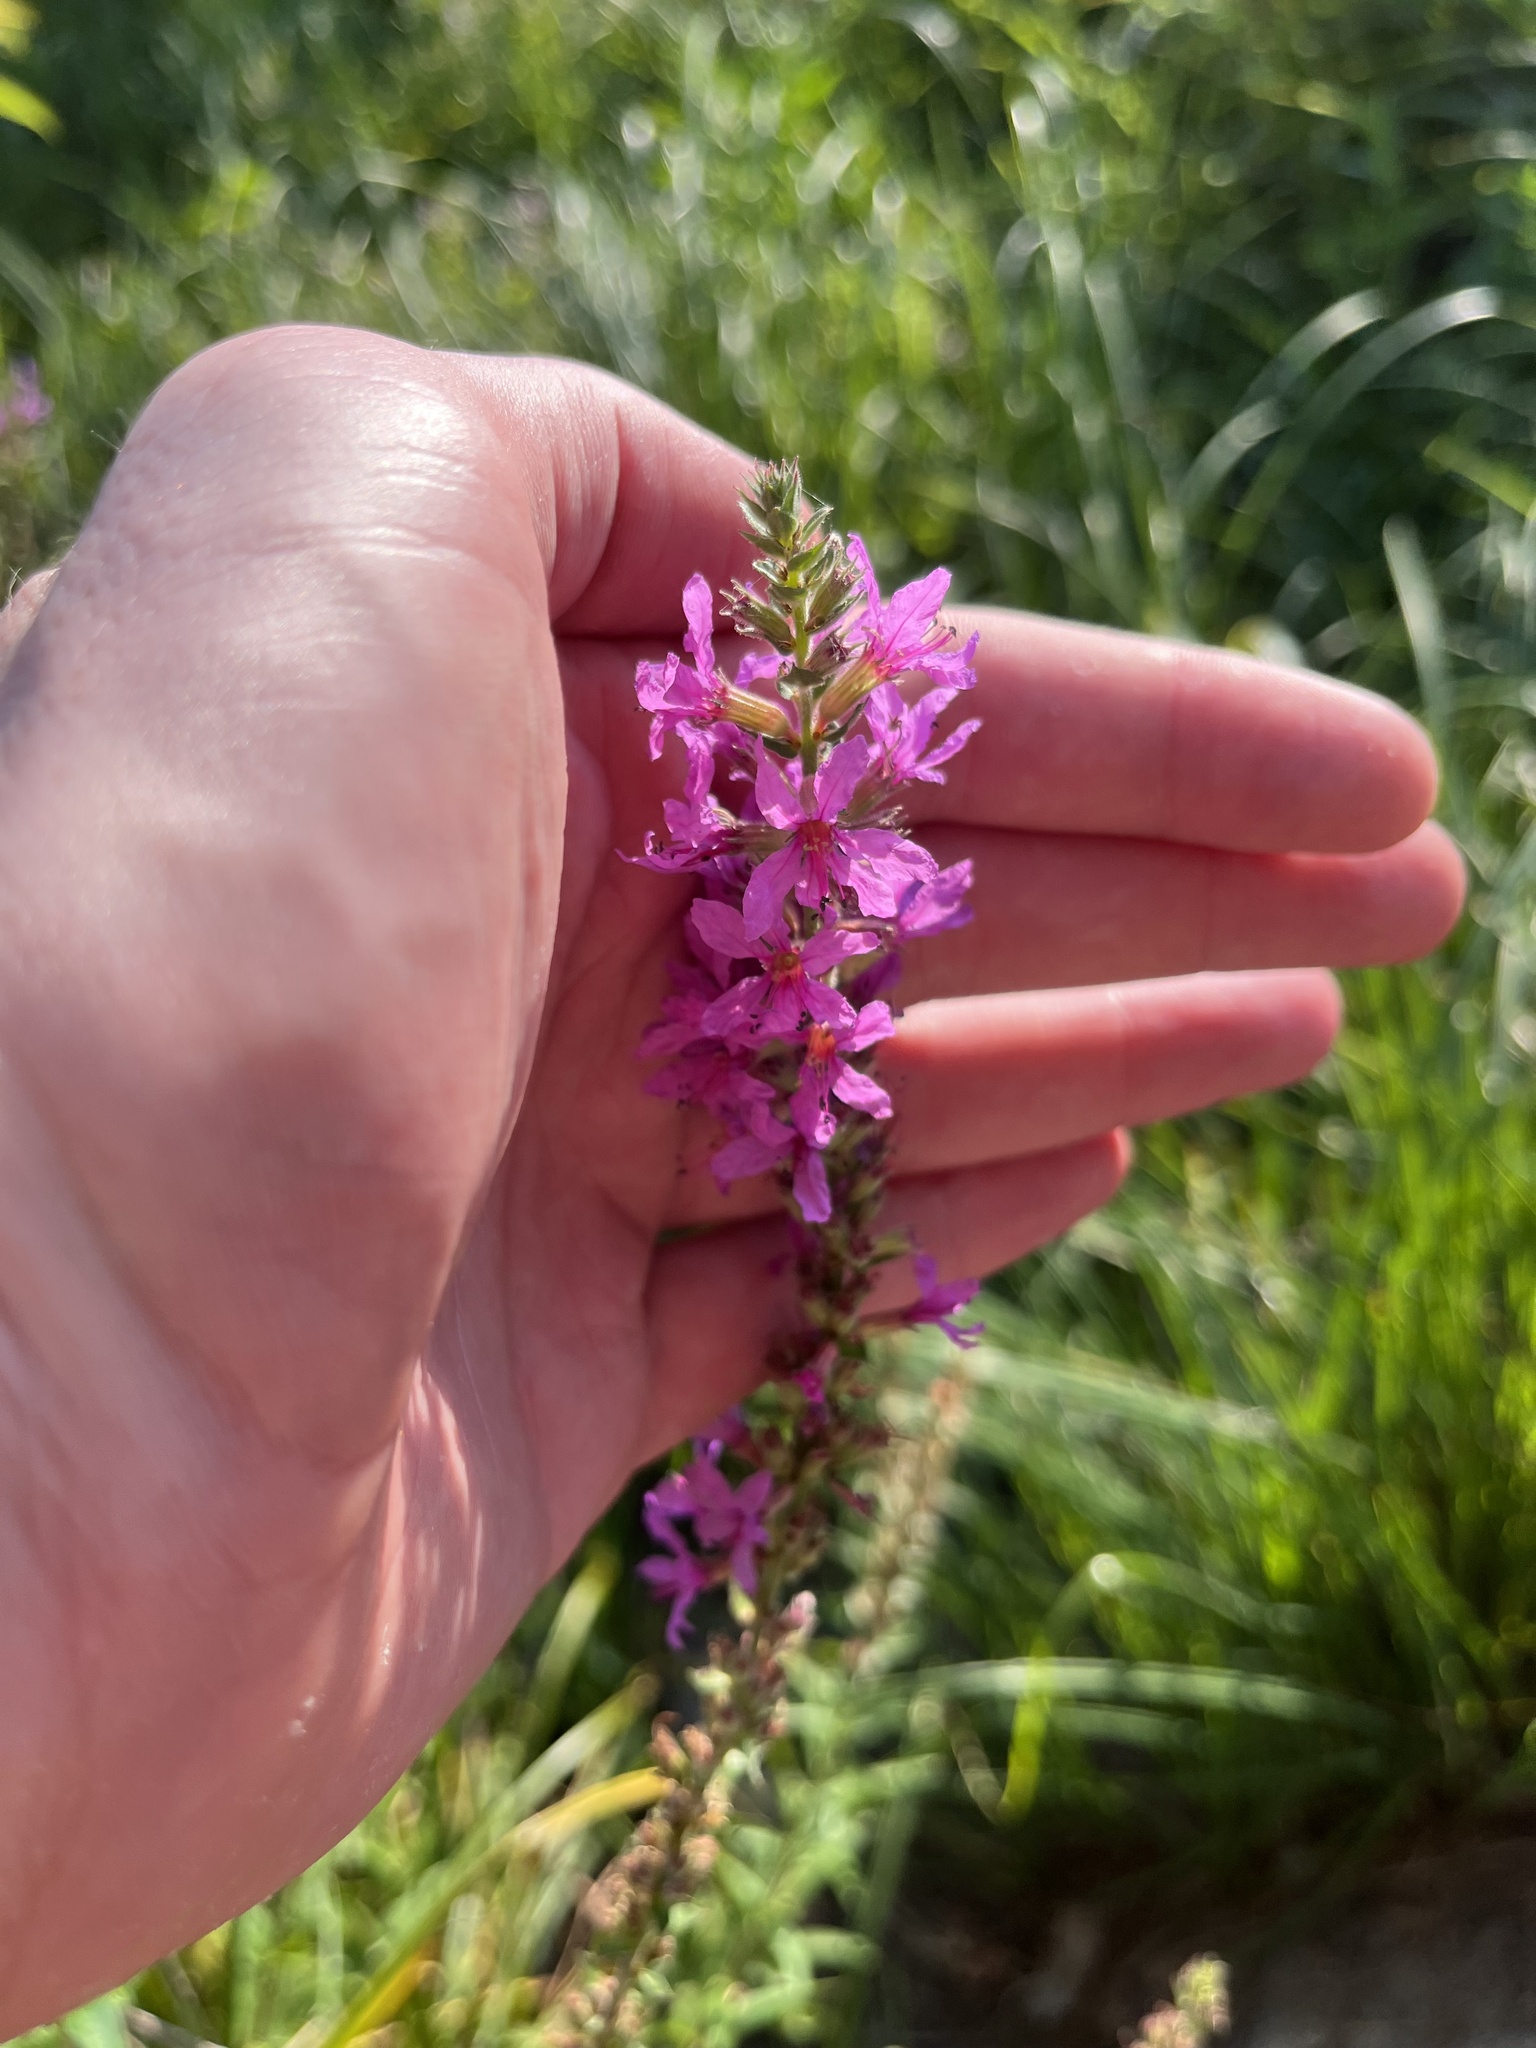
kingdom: Plantae
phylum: Tracheophyta
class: Magnoliopsida
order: Myrtales
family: Lythraceae
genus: Lythrum
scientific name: Lythrum salicaria
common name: Purple loosestrife
